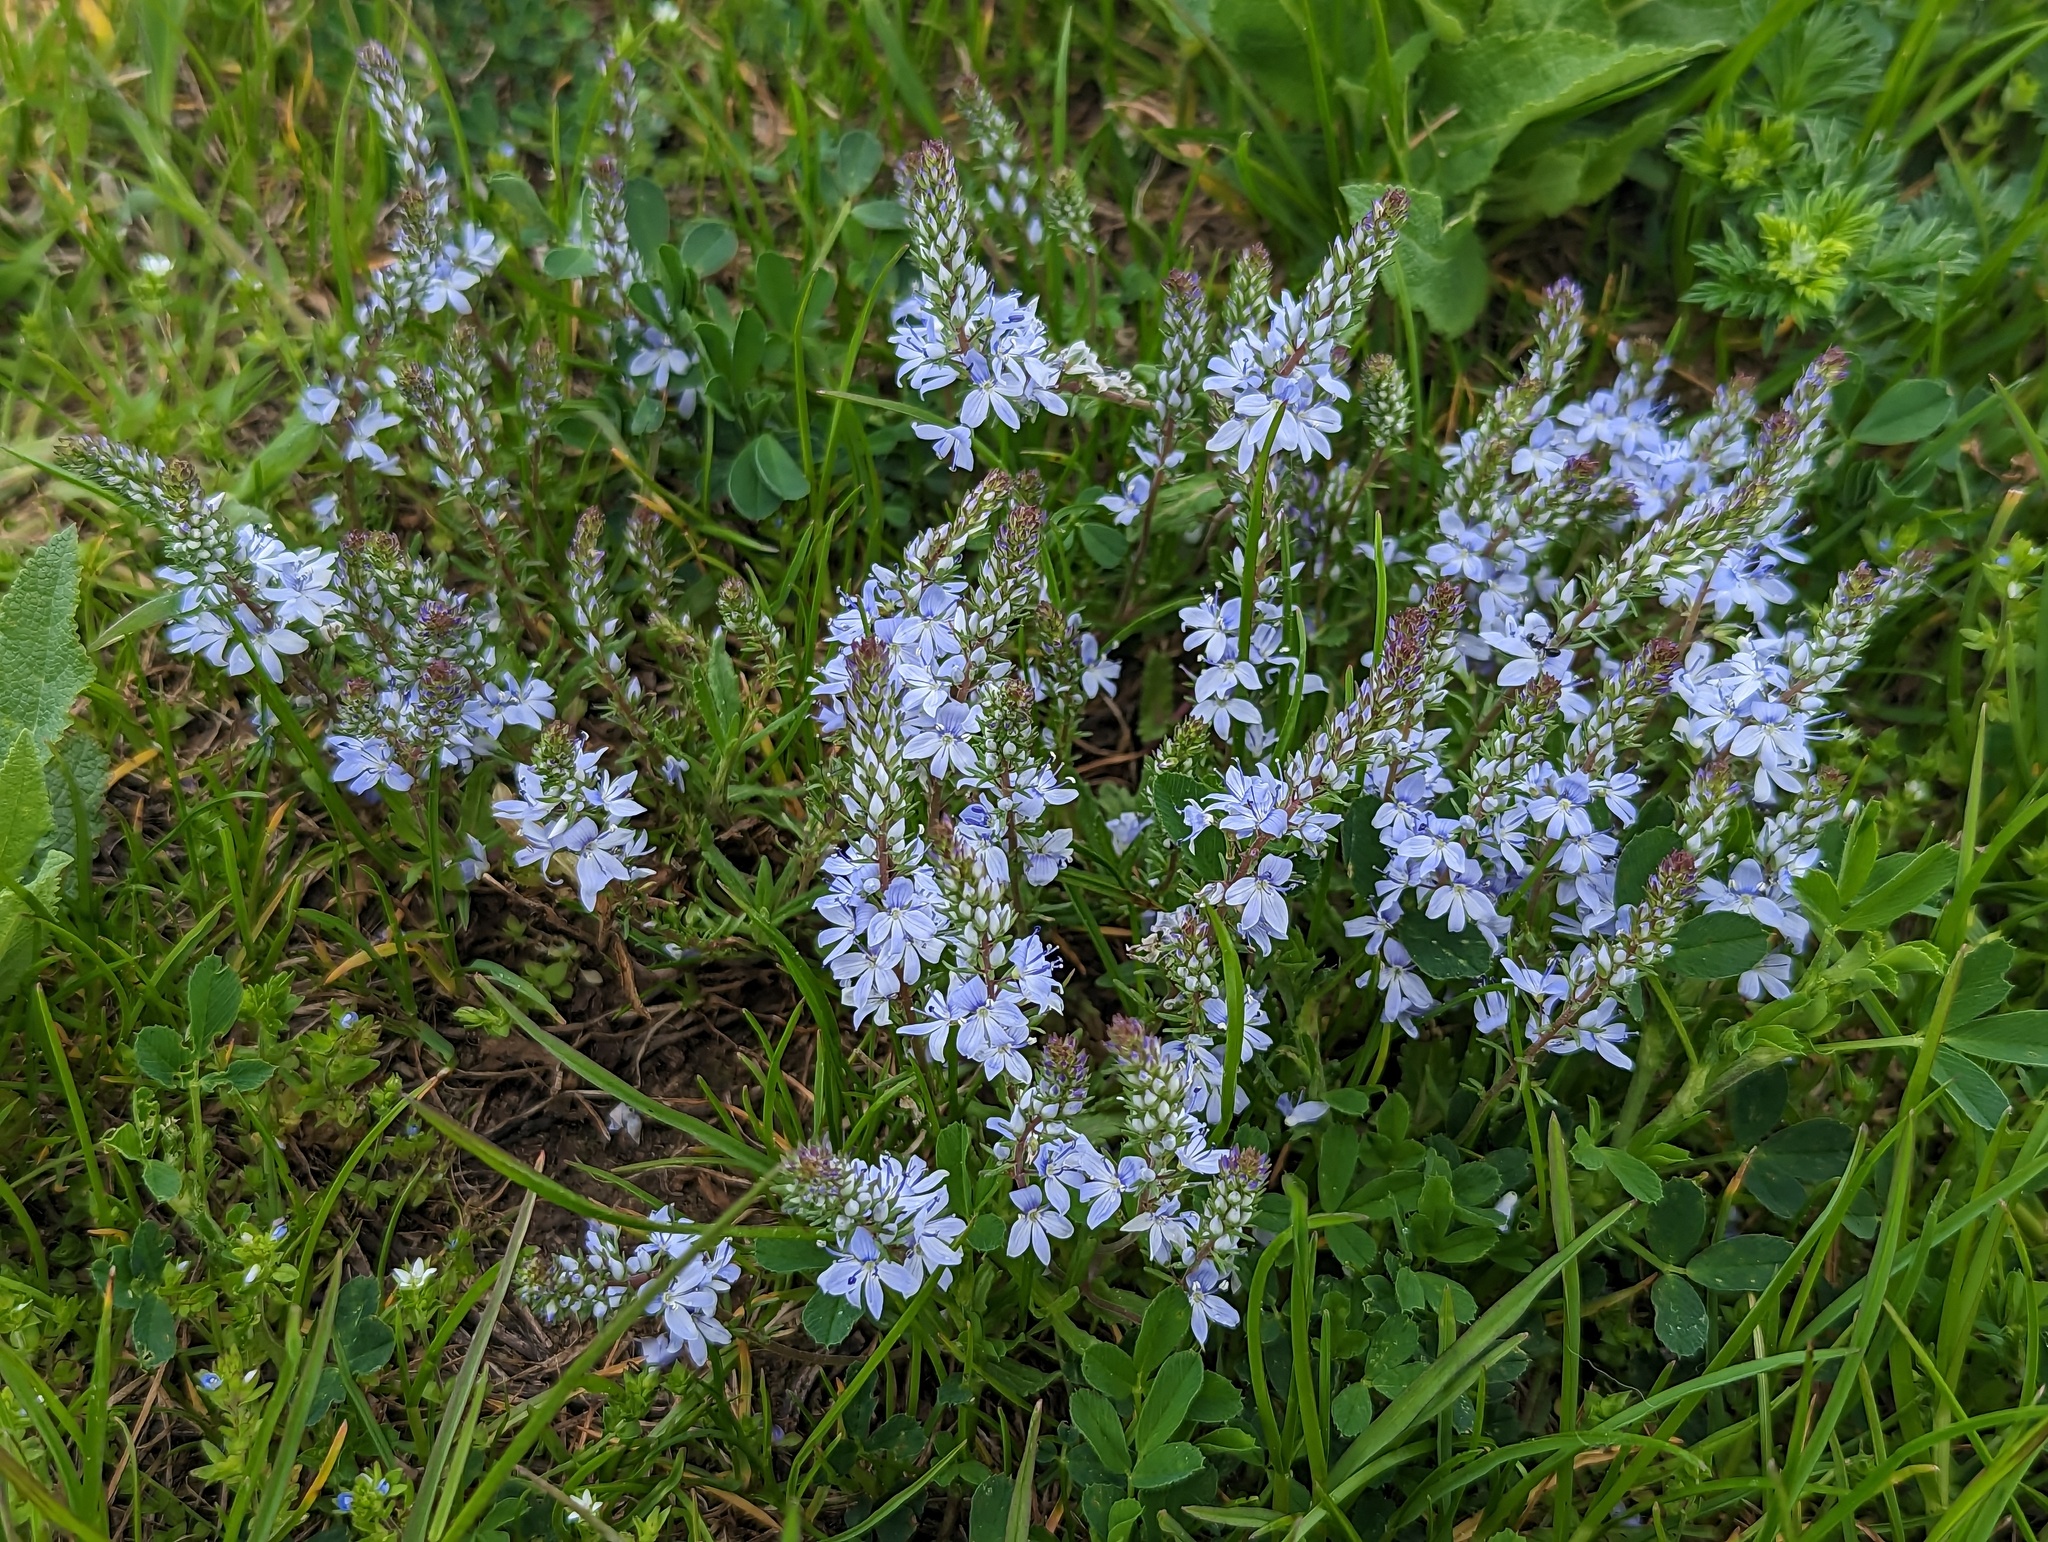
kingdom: Plantae
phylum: Tracheophyta
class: Magnoliopsida
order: Lamiales
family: Plantaginaceae
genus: Veronica
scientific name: Veronica prostrata
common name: Prostrate speedwell
